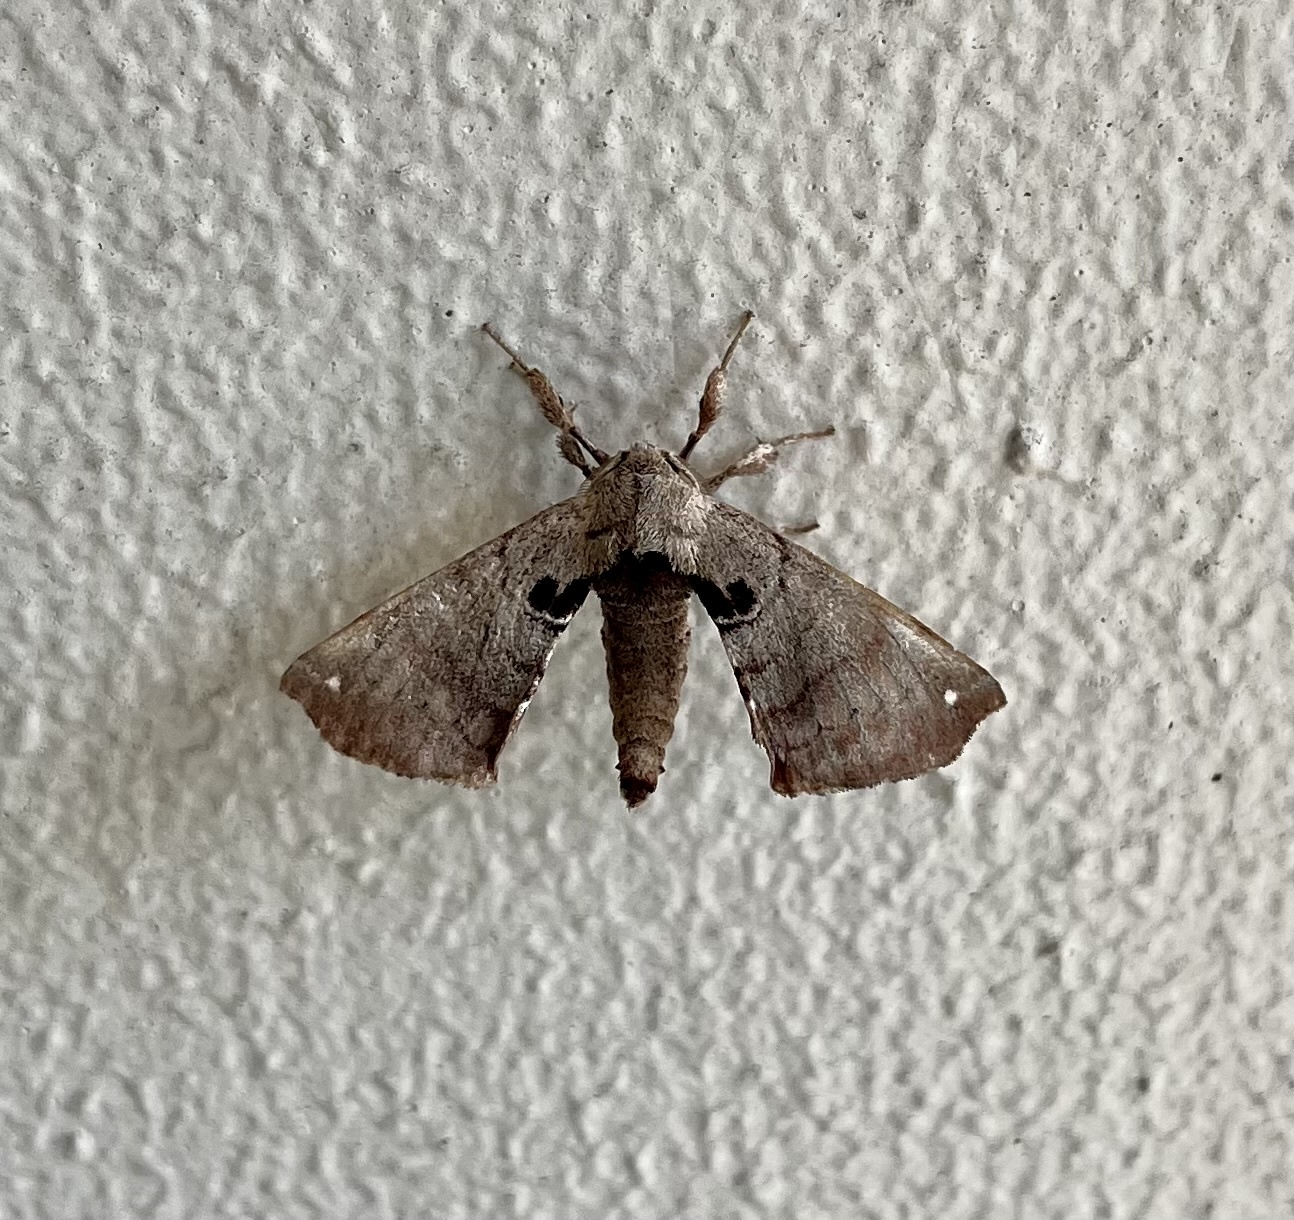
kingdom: Animalia
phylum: Arthropoda
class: Insecta
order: Lepidoptera
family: Apatelodidae
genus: Hygrochroa
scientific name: Hygrochroa Apatelodes torrefacta
